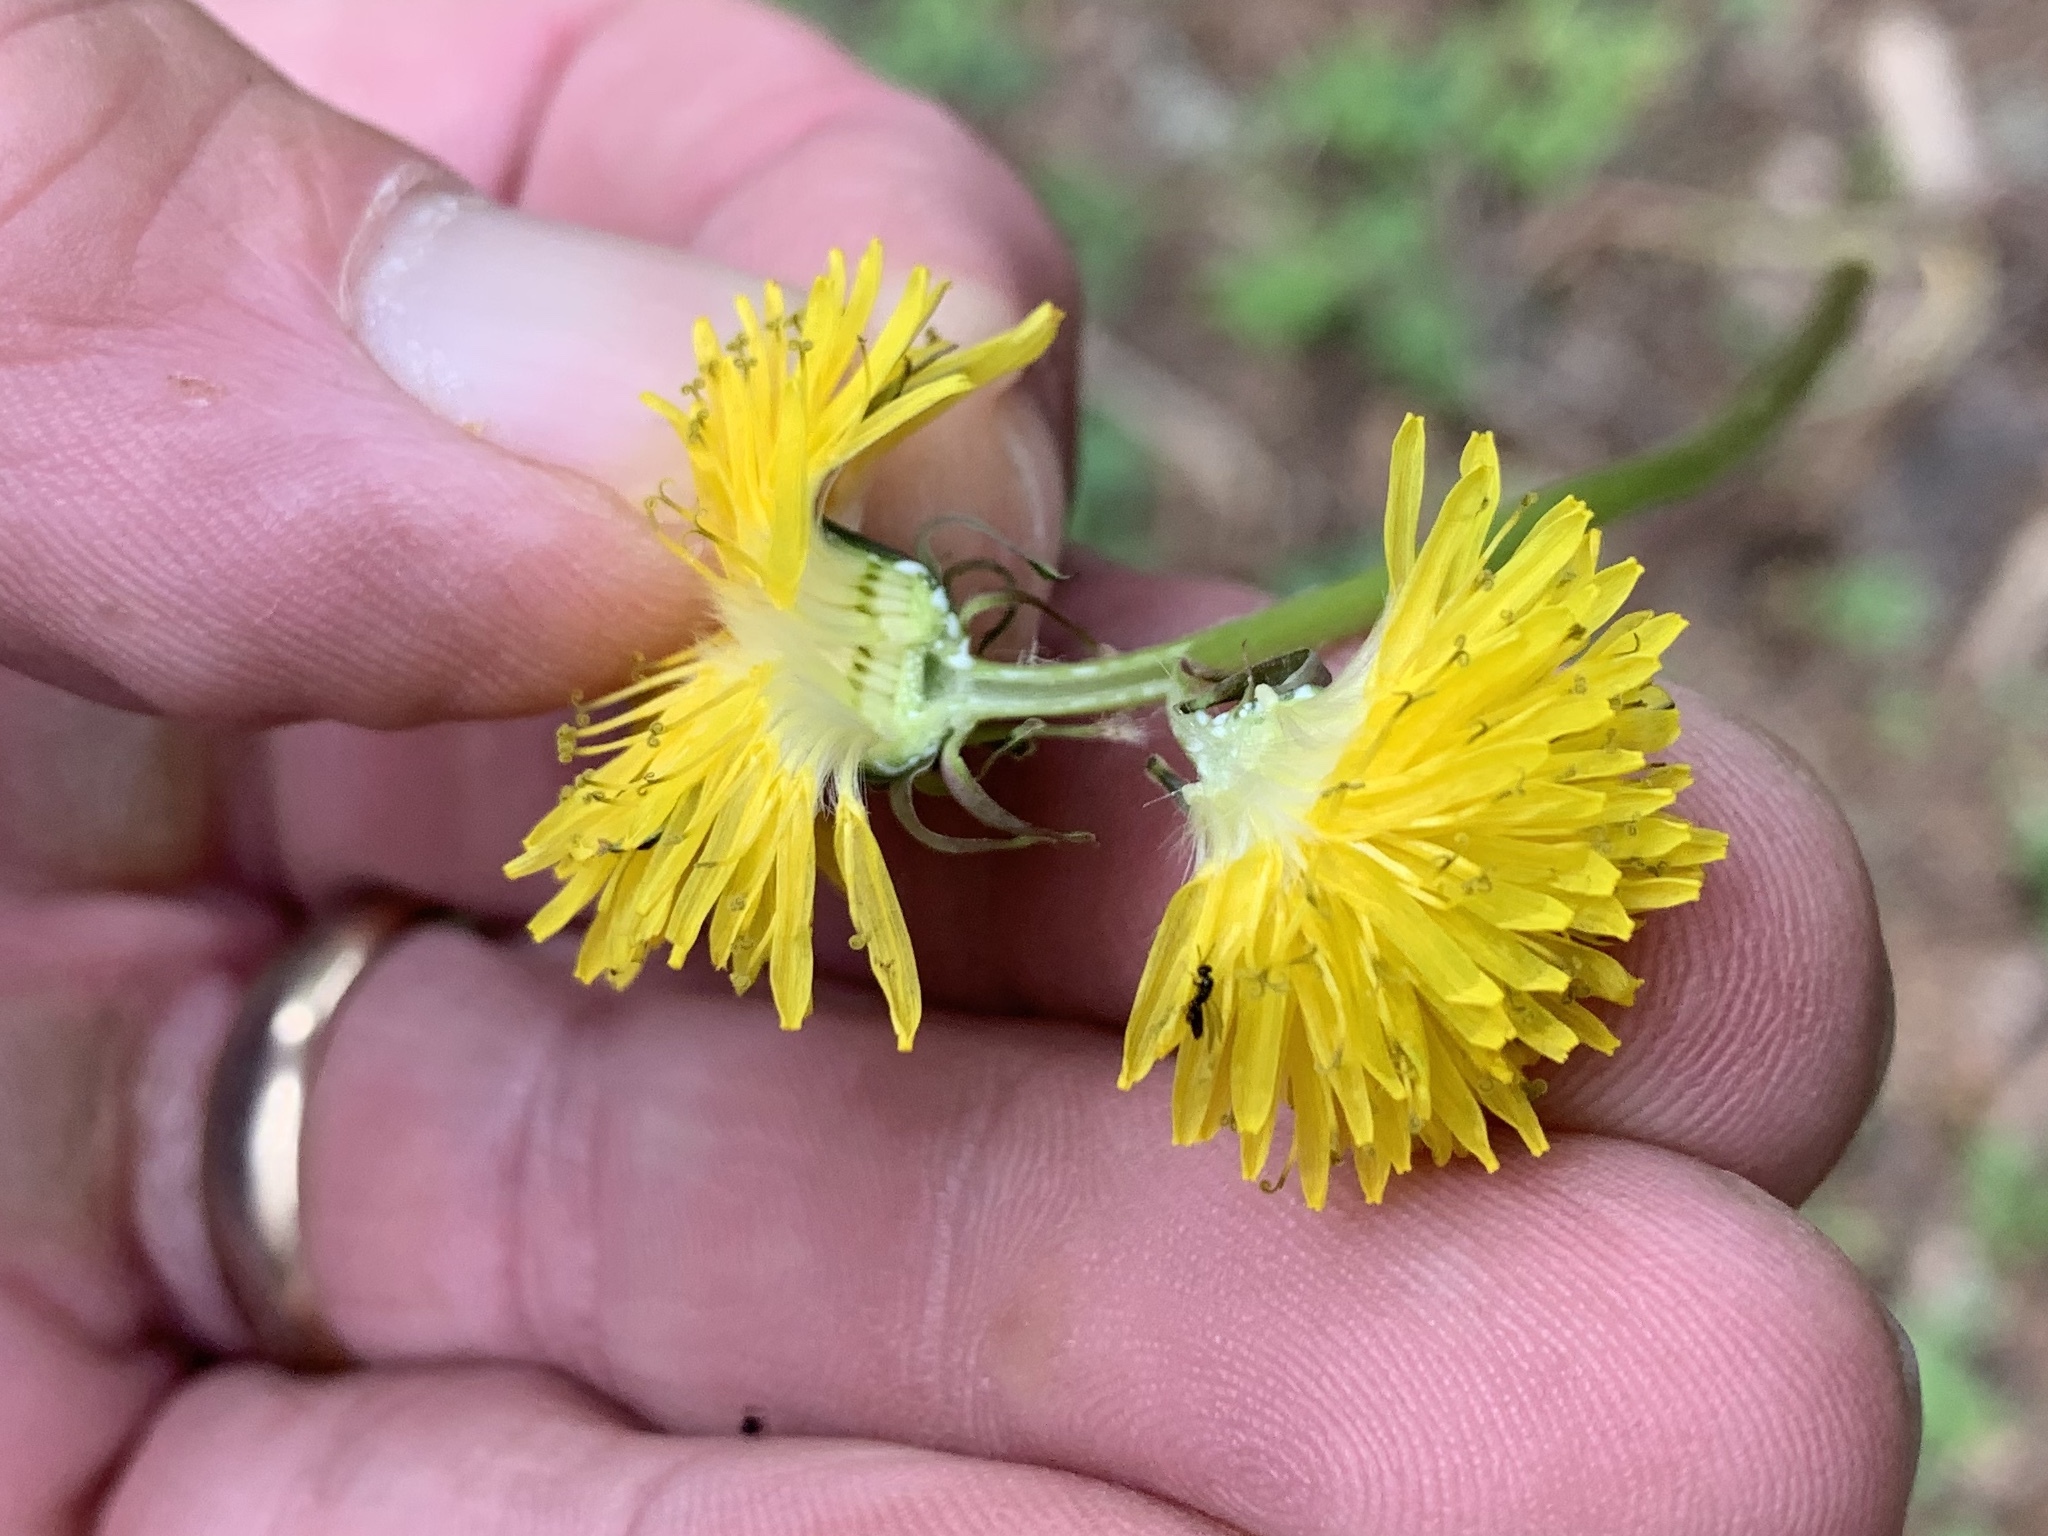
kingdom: Plantae
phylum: Tracheophyta
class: Magnoliopsida
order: Asterales
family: Asteraceae
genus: Taraxacum
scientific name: Taraxacum officinale
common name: Common dandelion
